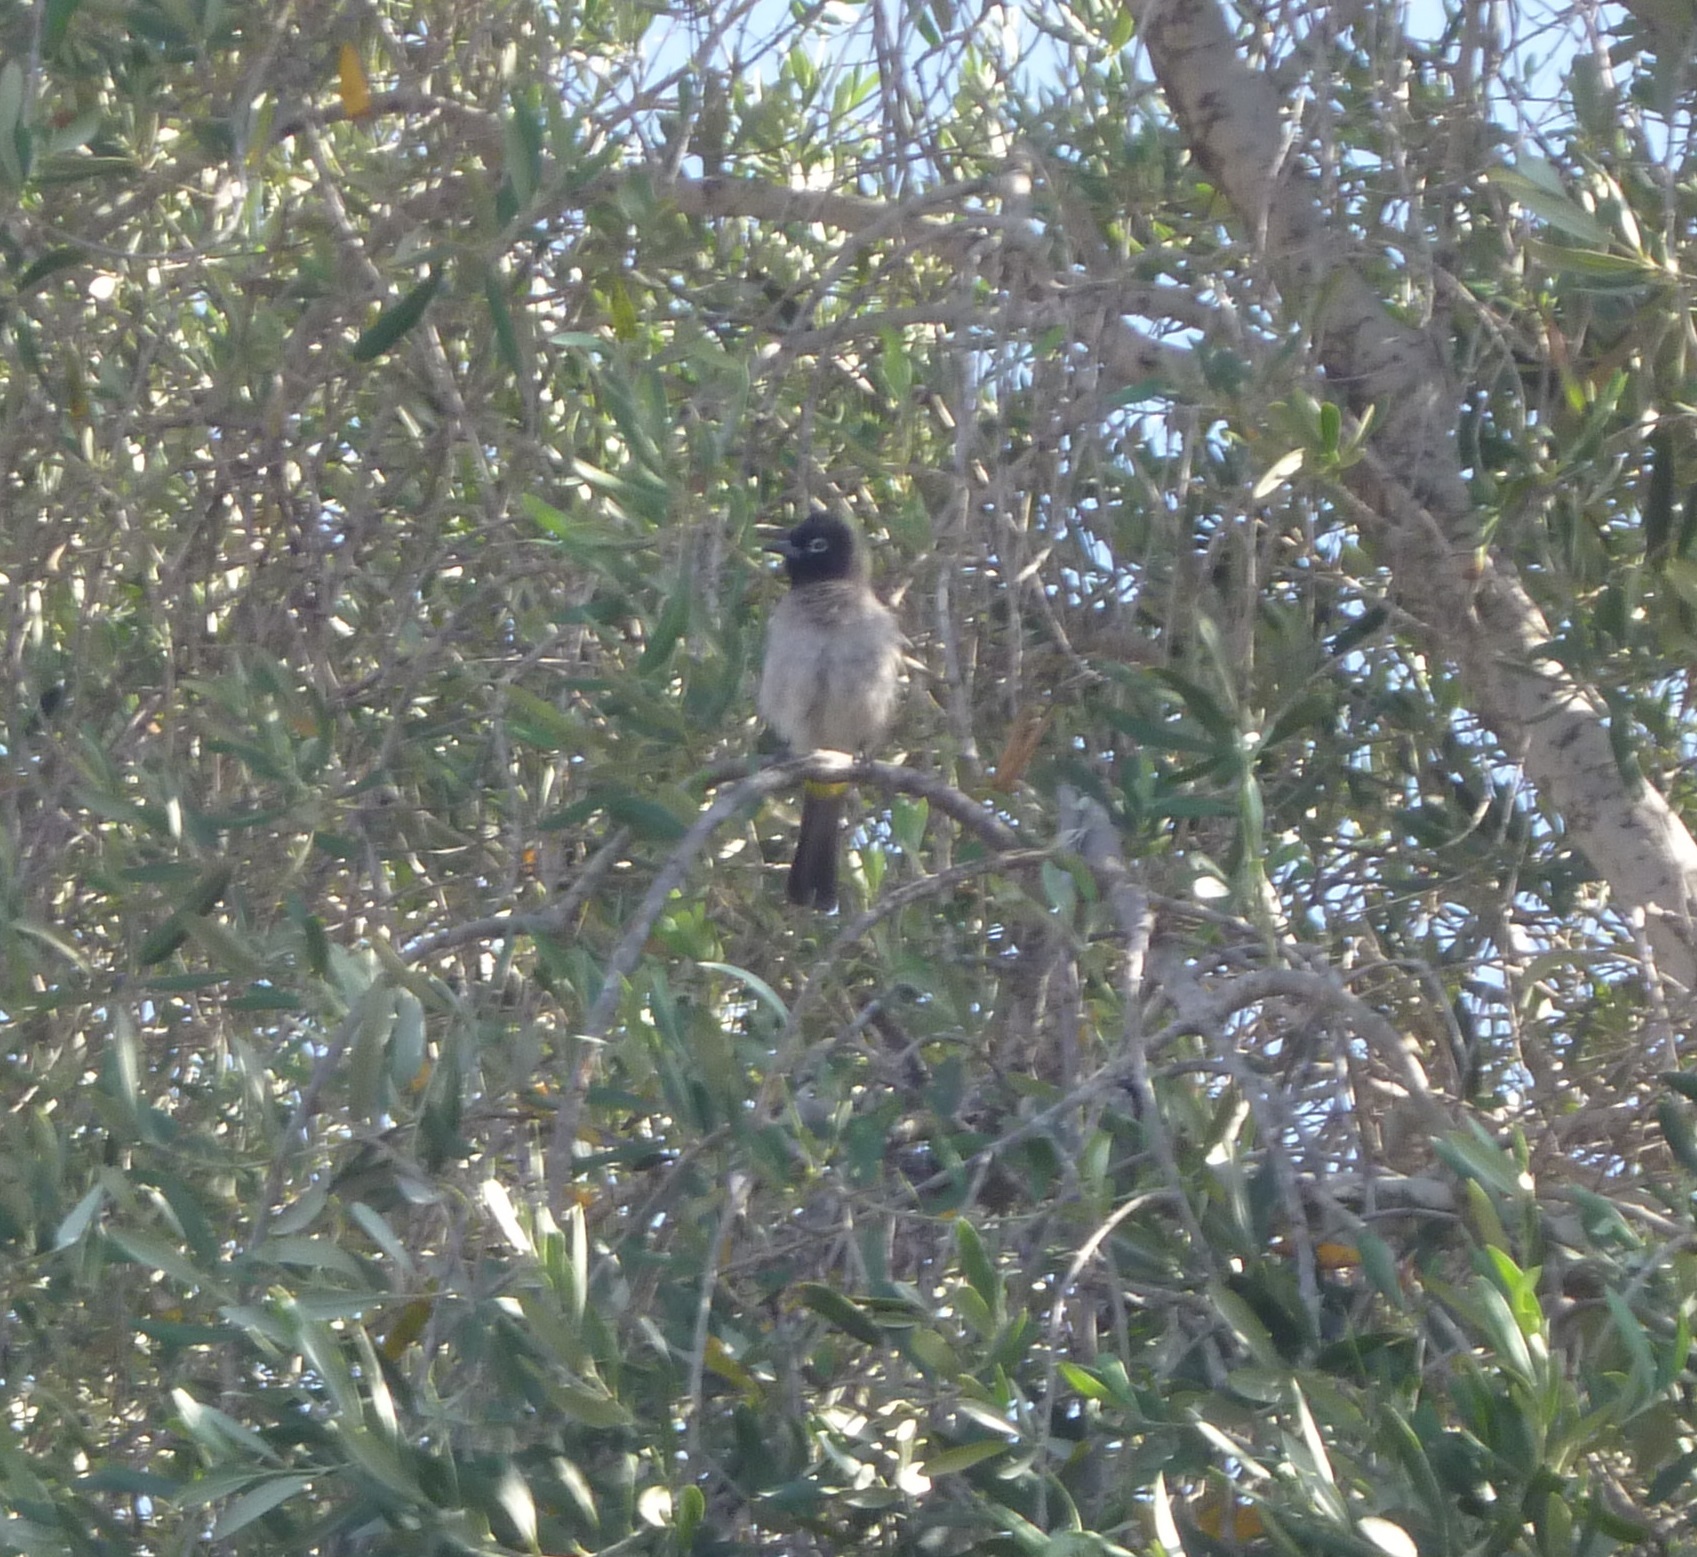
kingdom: Animalia
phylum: Chordata
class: Aves
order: Passeriformes
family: Pycnonotidae
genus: Pycnonotus
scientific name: Pycnonotus xanthopygos
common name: White-spectacled bulbul
